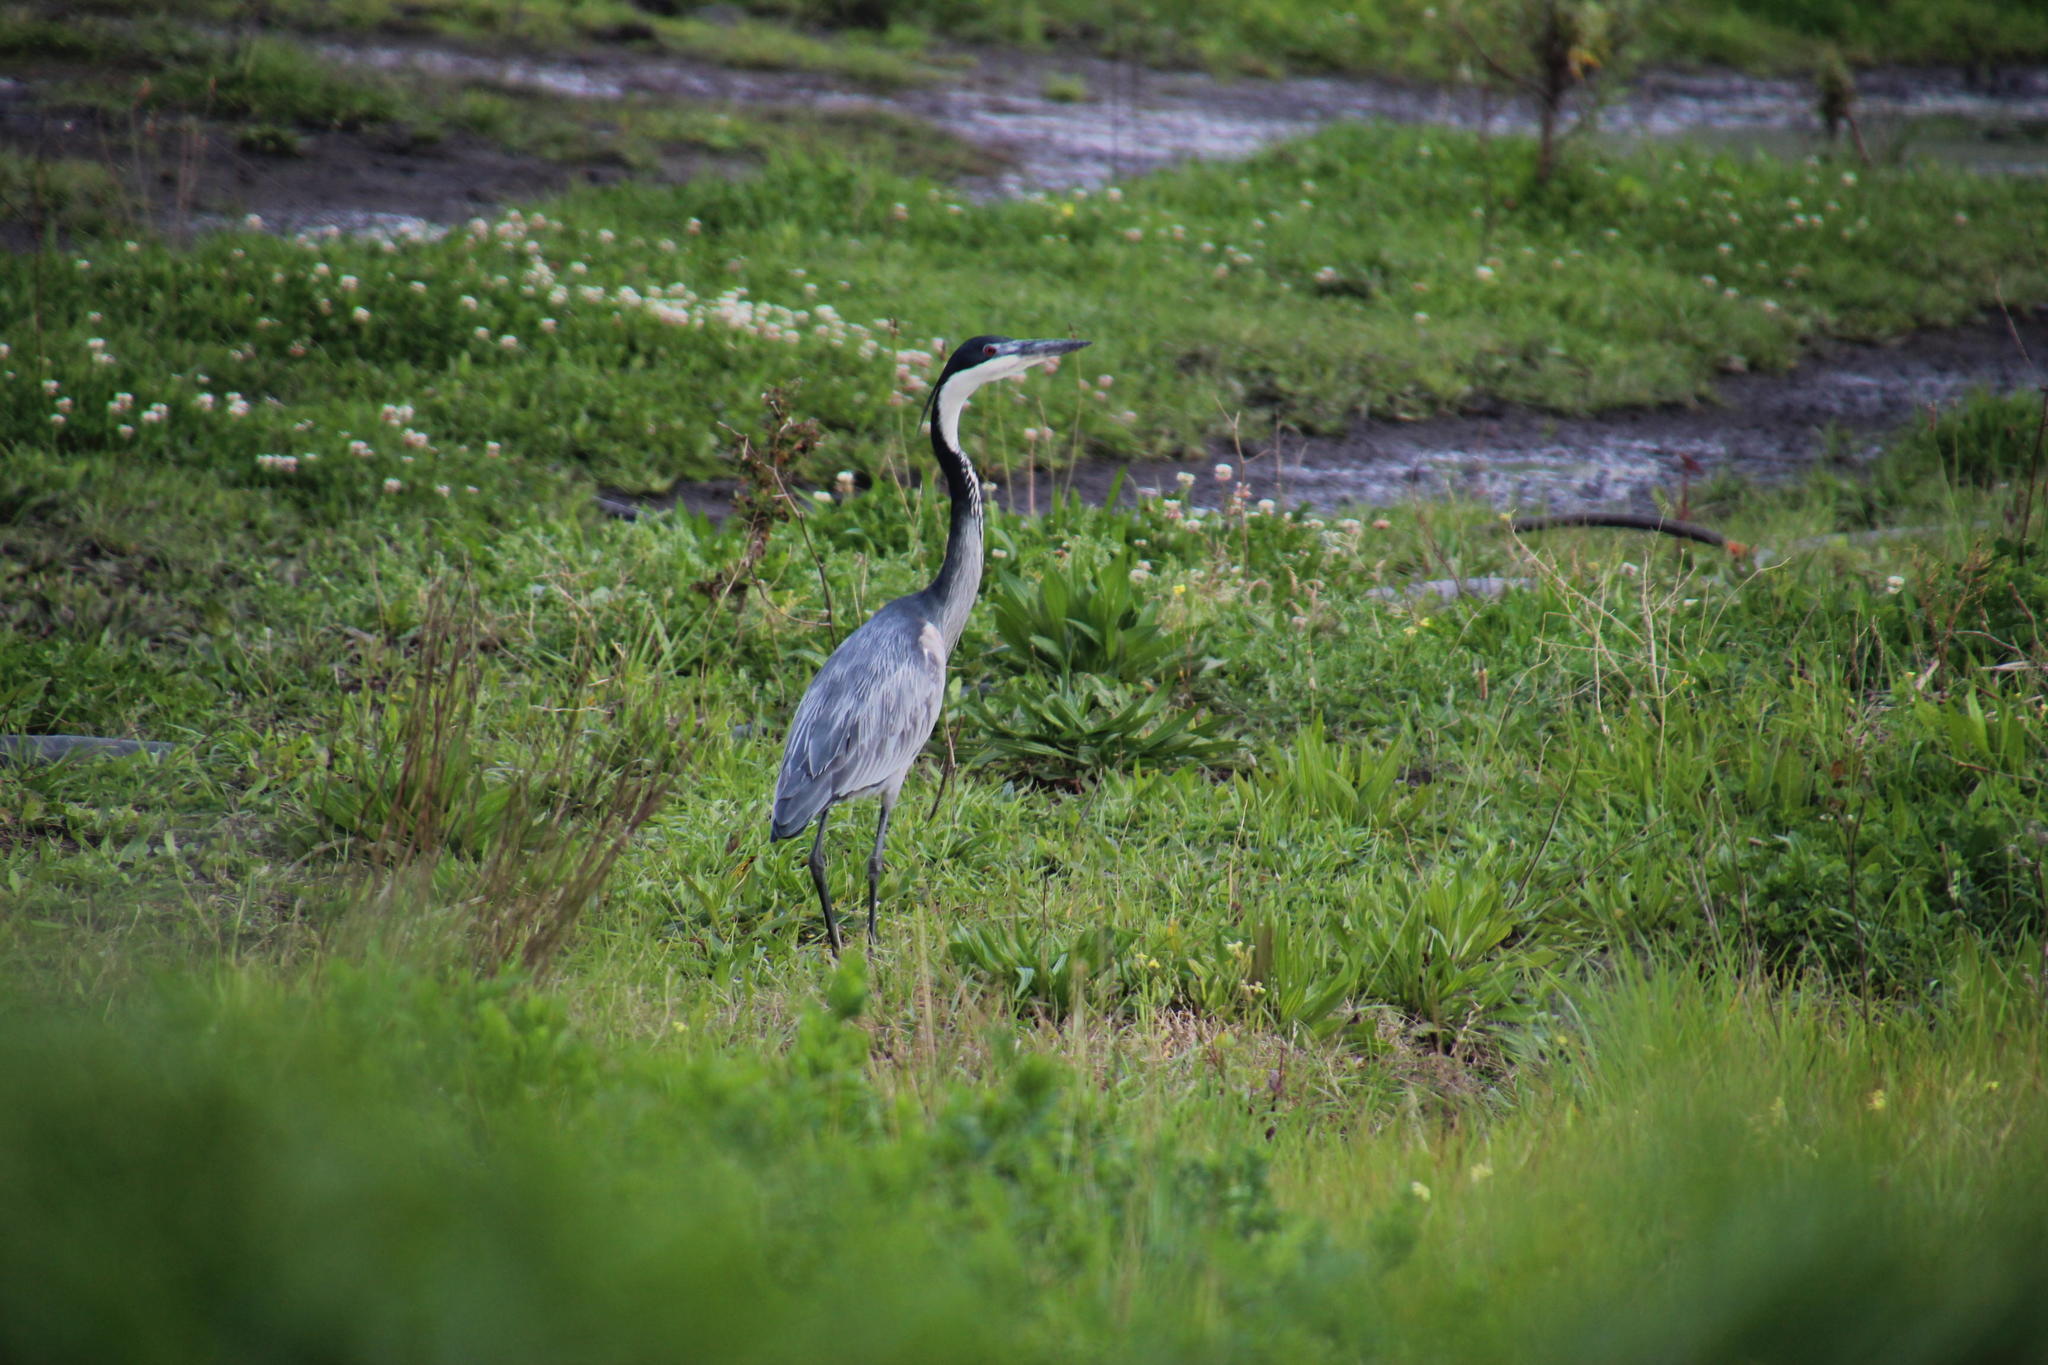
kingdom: Animalia
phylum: Chordata
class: Aves
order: Pelecaniformes
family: Ardeidae
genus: Ardea
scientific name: Ardea melanocephala
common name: Black-headed heron
